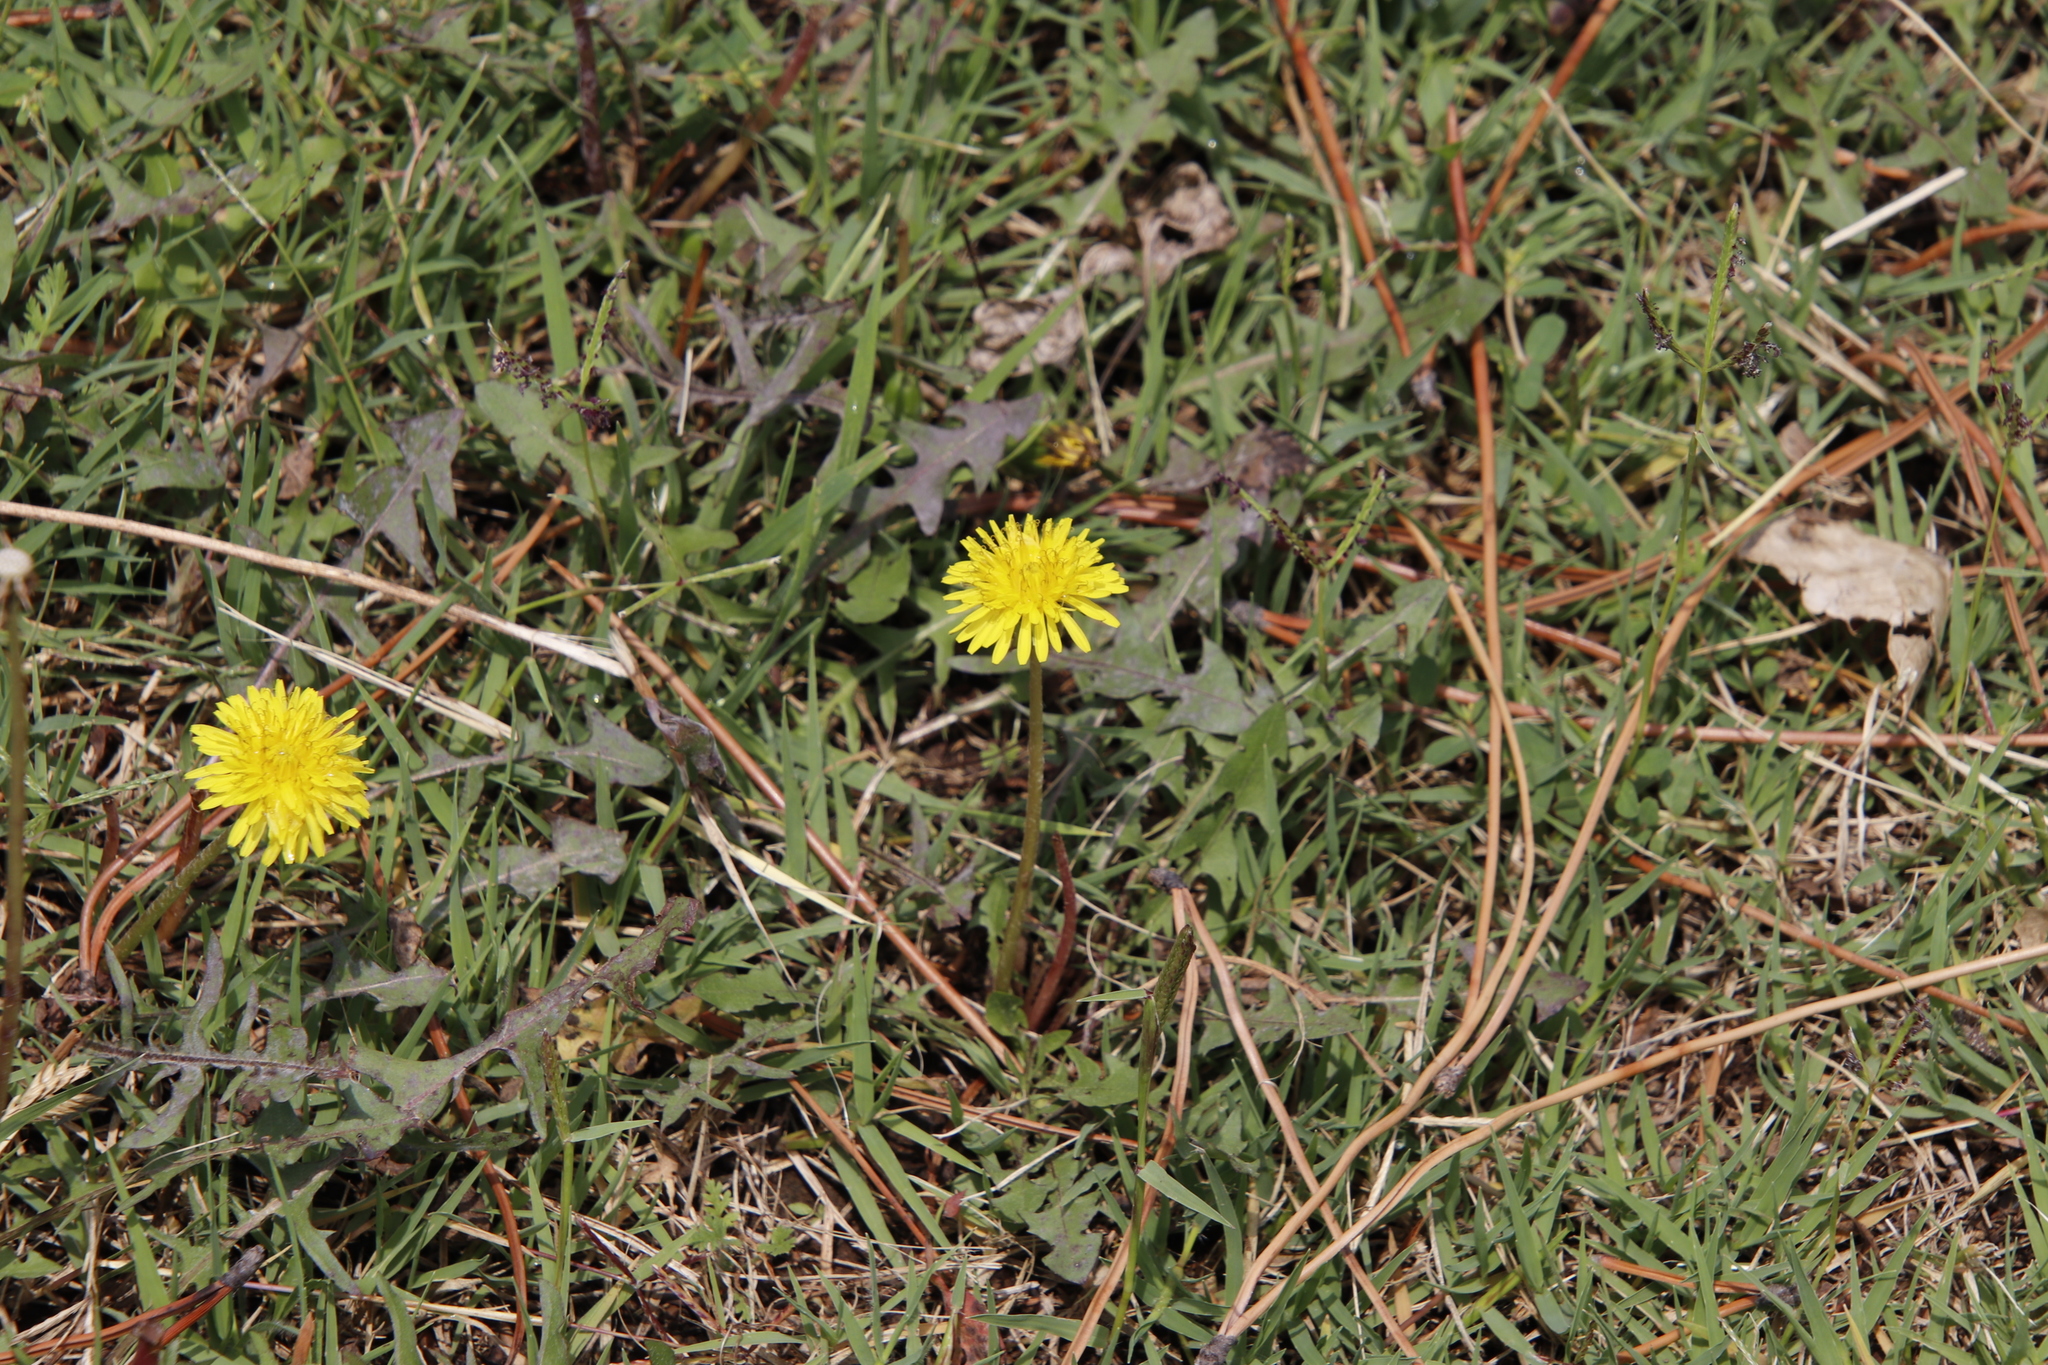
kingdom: Plantae
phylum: Tracheophyta
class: Magnoliopsida
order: Asterales
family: Asteraceae
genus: Taraxacum
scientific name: Taraxacum officinale
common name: Common dandelion
